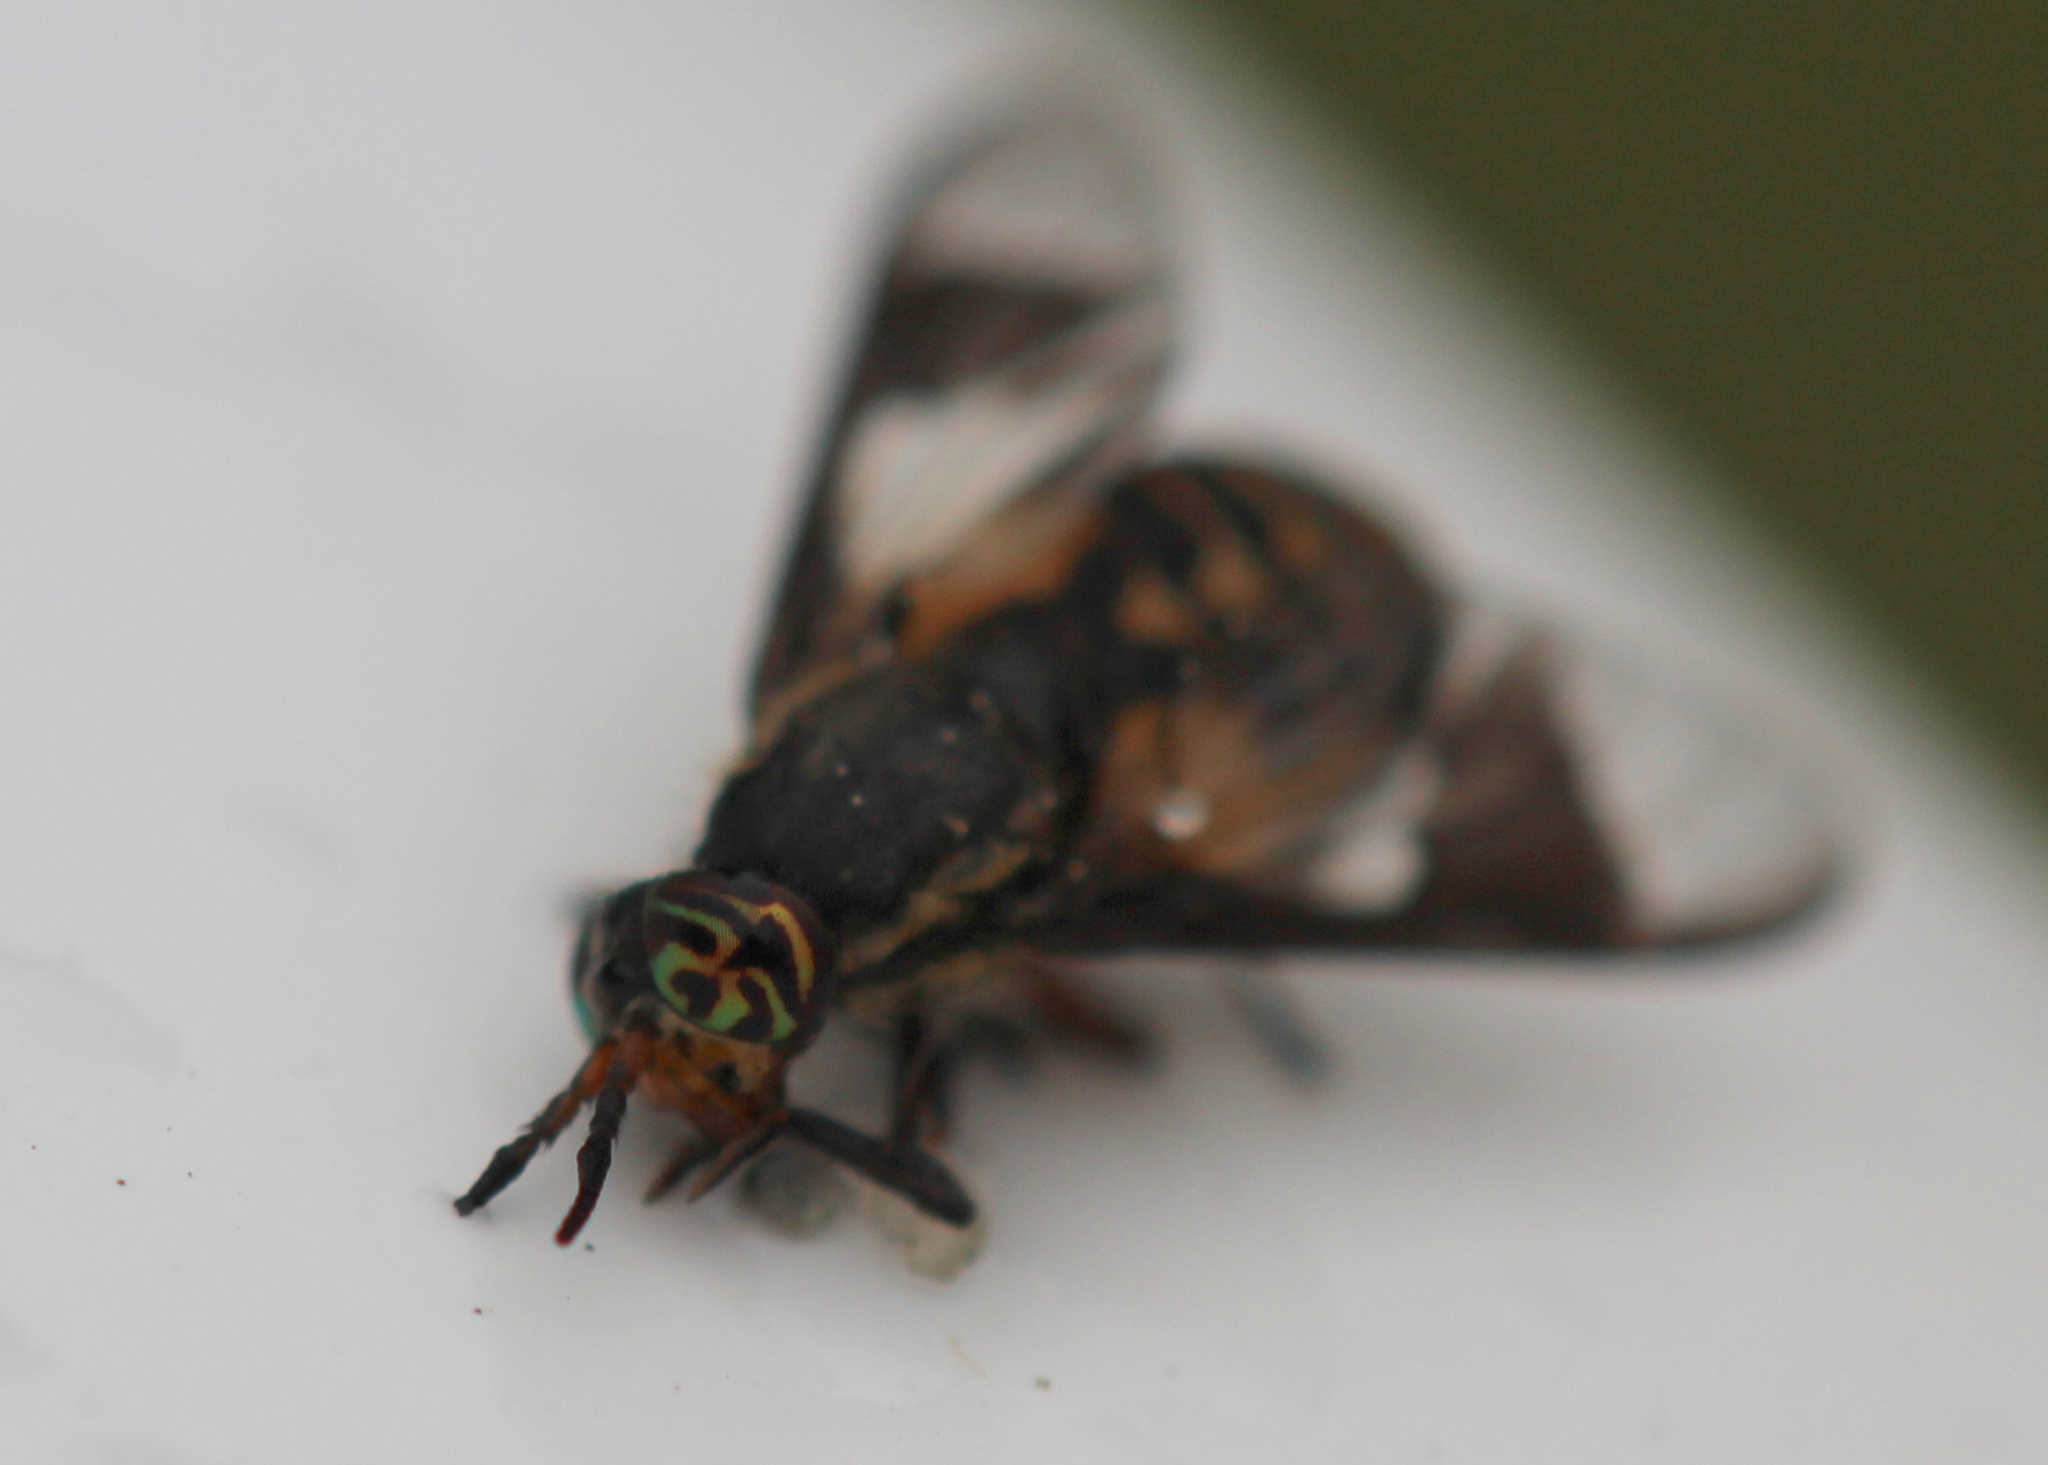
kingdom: Animalia
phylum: Arthropoda
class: Insecta
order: Diptera
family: Tabanidae
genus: Chrysops
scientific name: Chrysops sackeni
